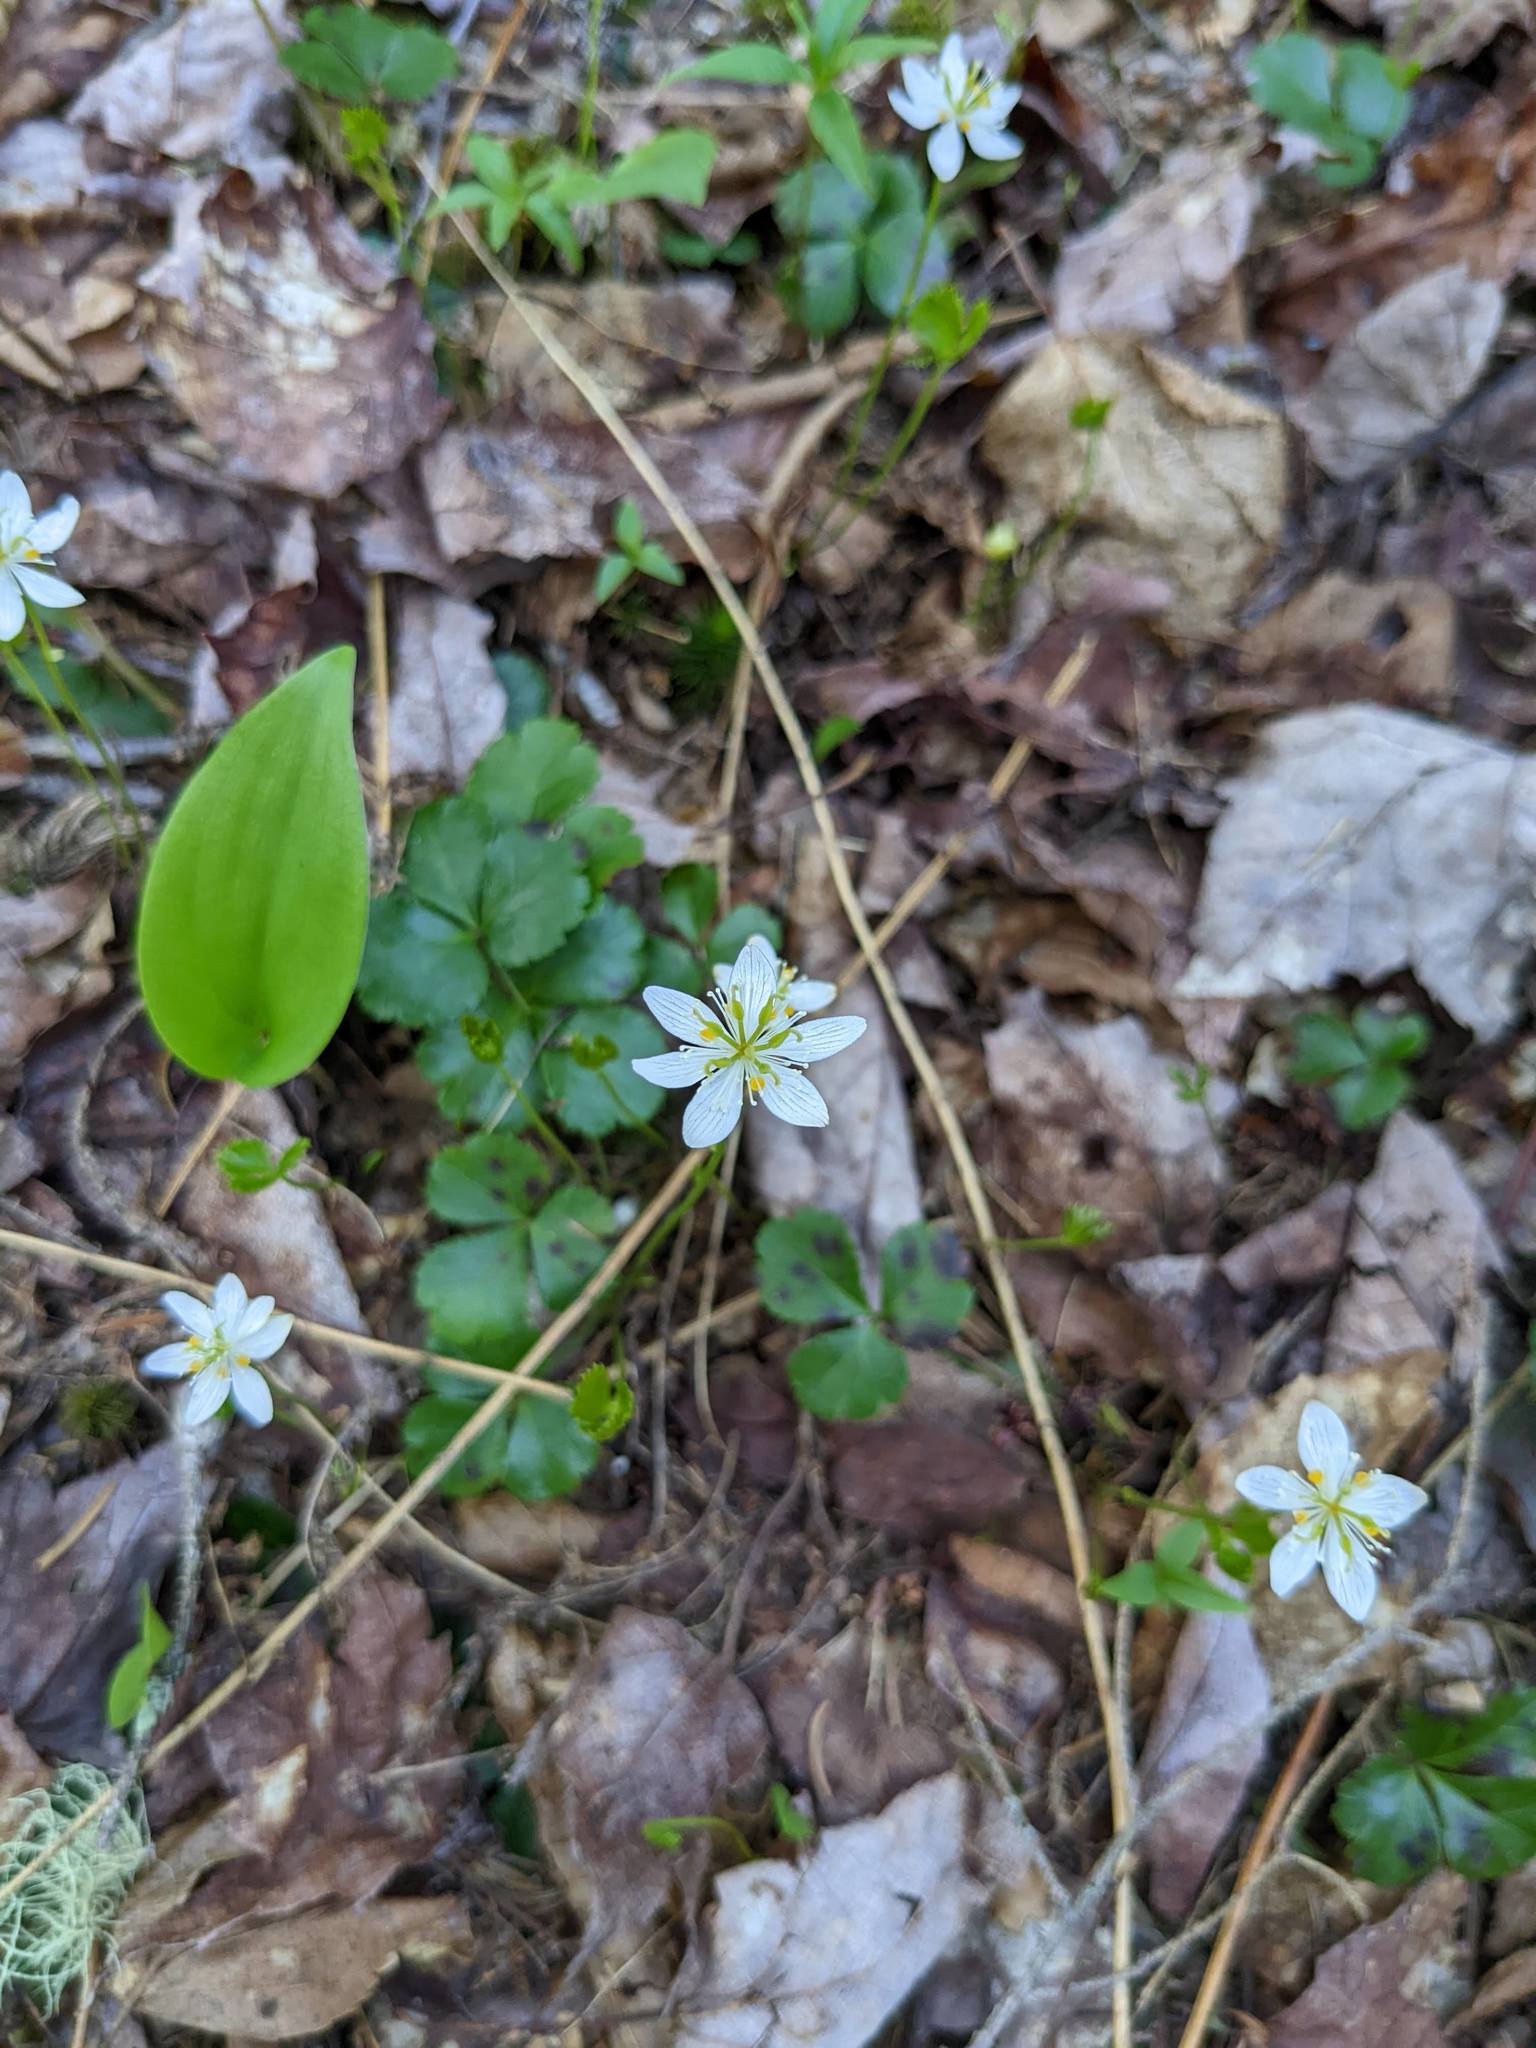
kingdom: Plantae
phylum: Tracheophyta
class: Magnoliopsida
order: Ranunculales
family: Ranunculaceae
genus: Coptis
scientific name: Coptis trifolia
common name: Canker-root
